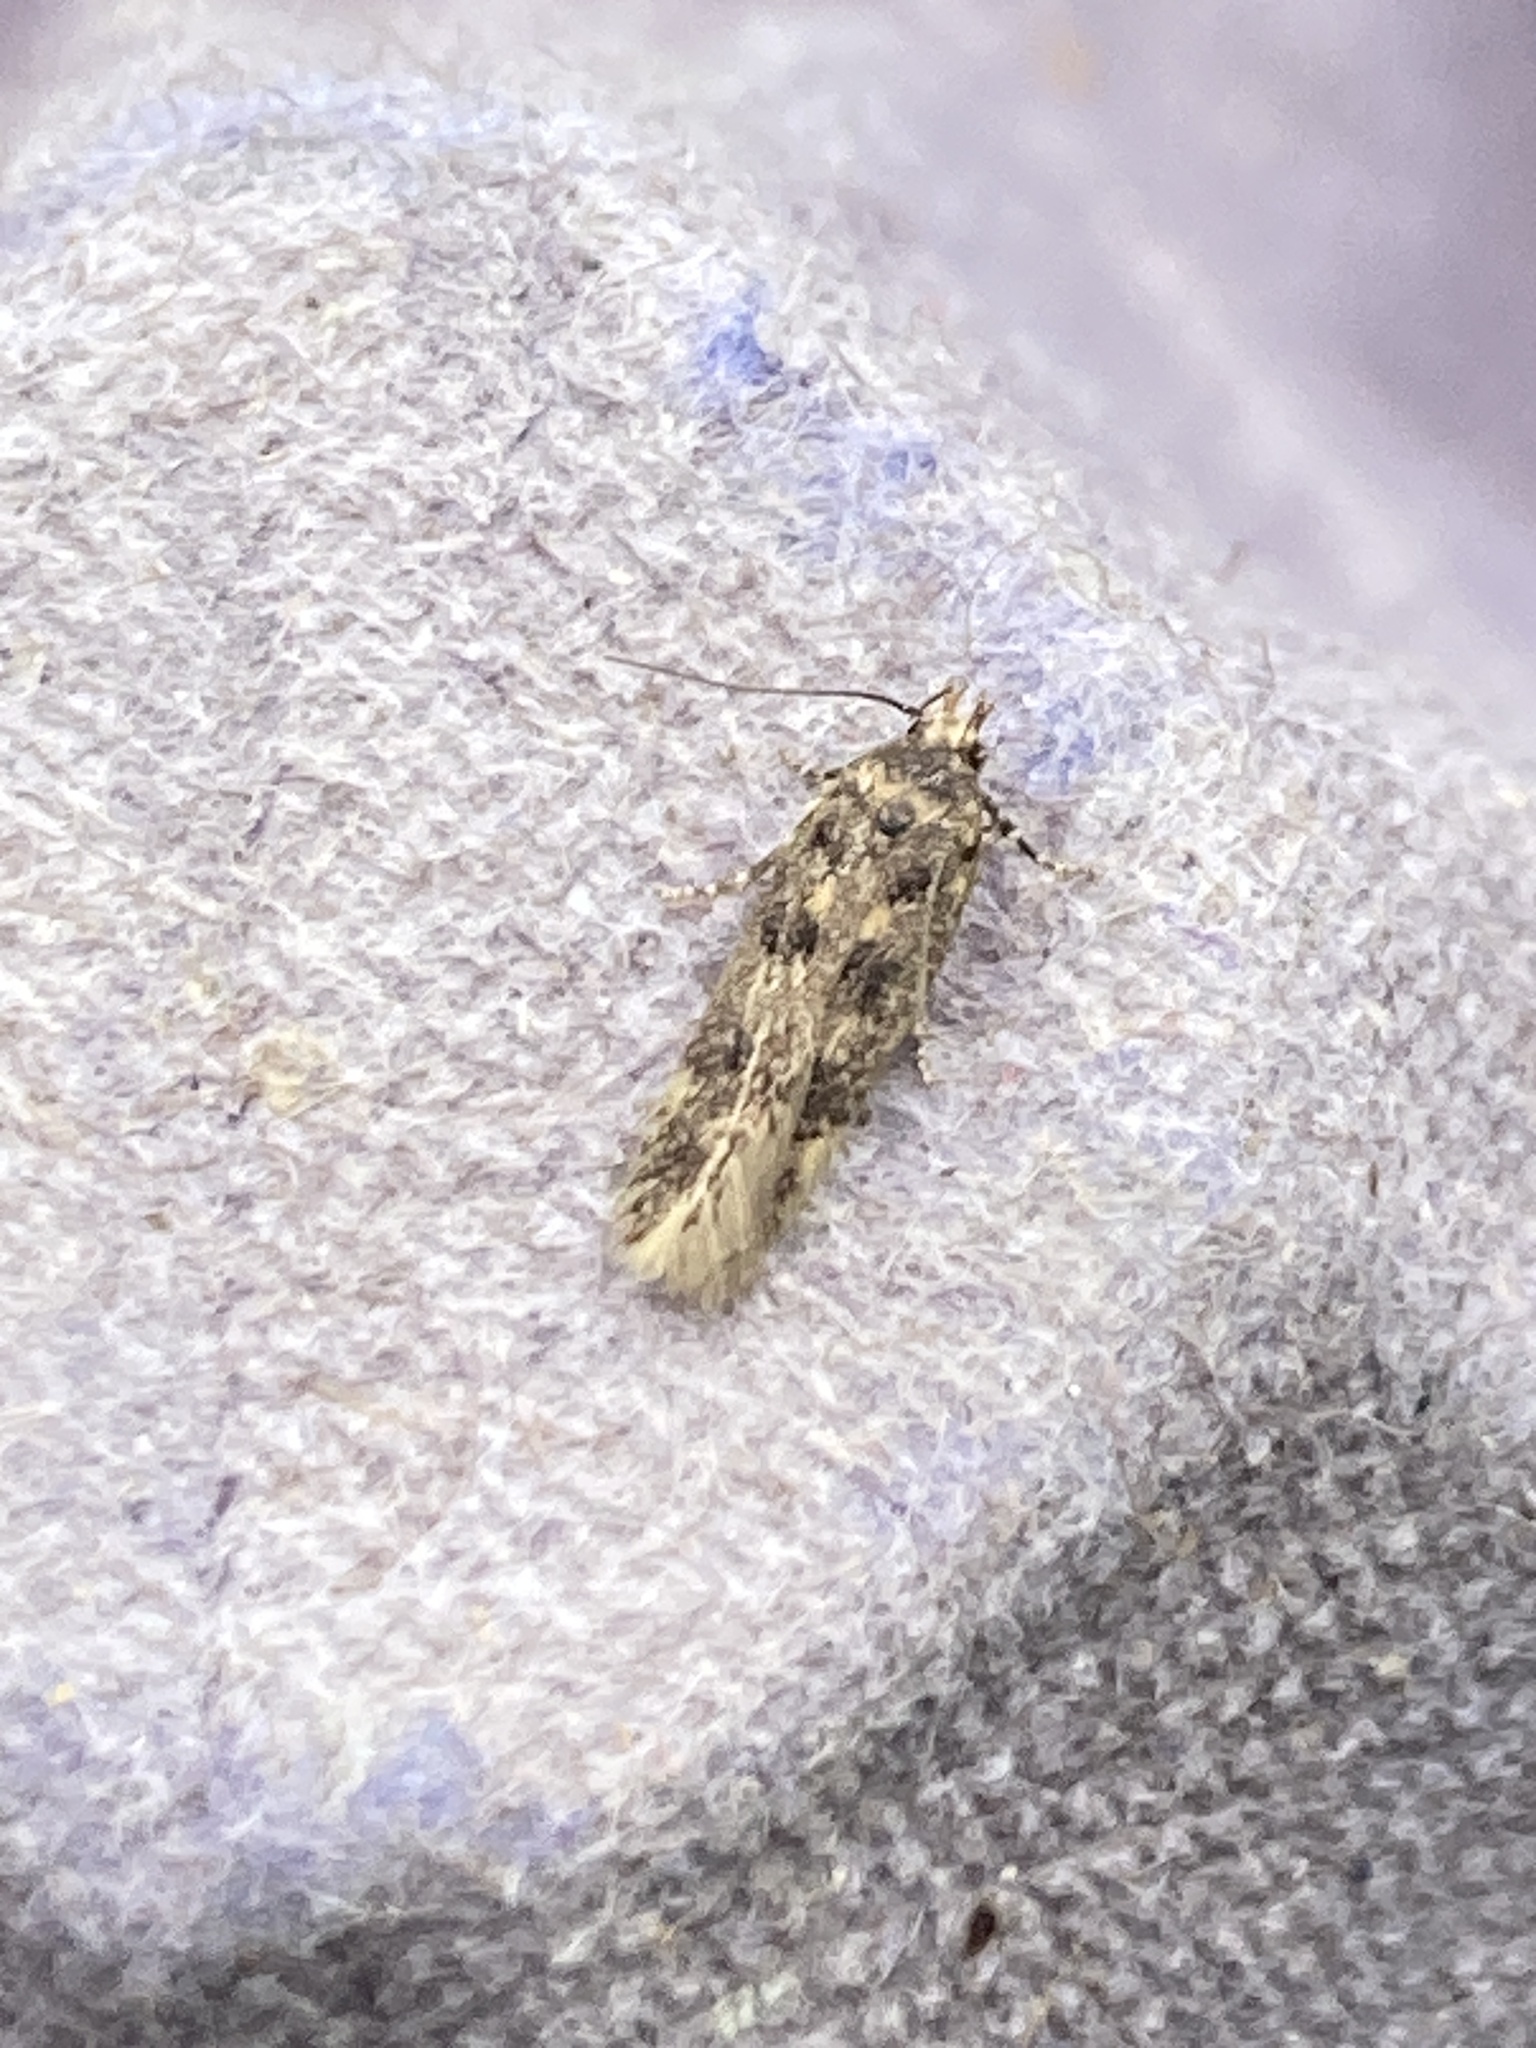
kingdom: Animalia
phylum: Arthropoda
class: Insecta
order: Lepidoptera
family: Gelechiidae
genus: Bryotropha
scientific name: Bryotropha domestica
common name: House groundling
